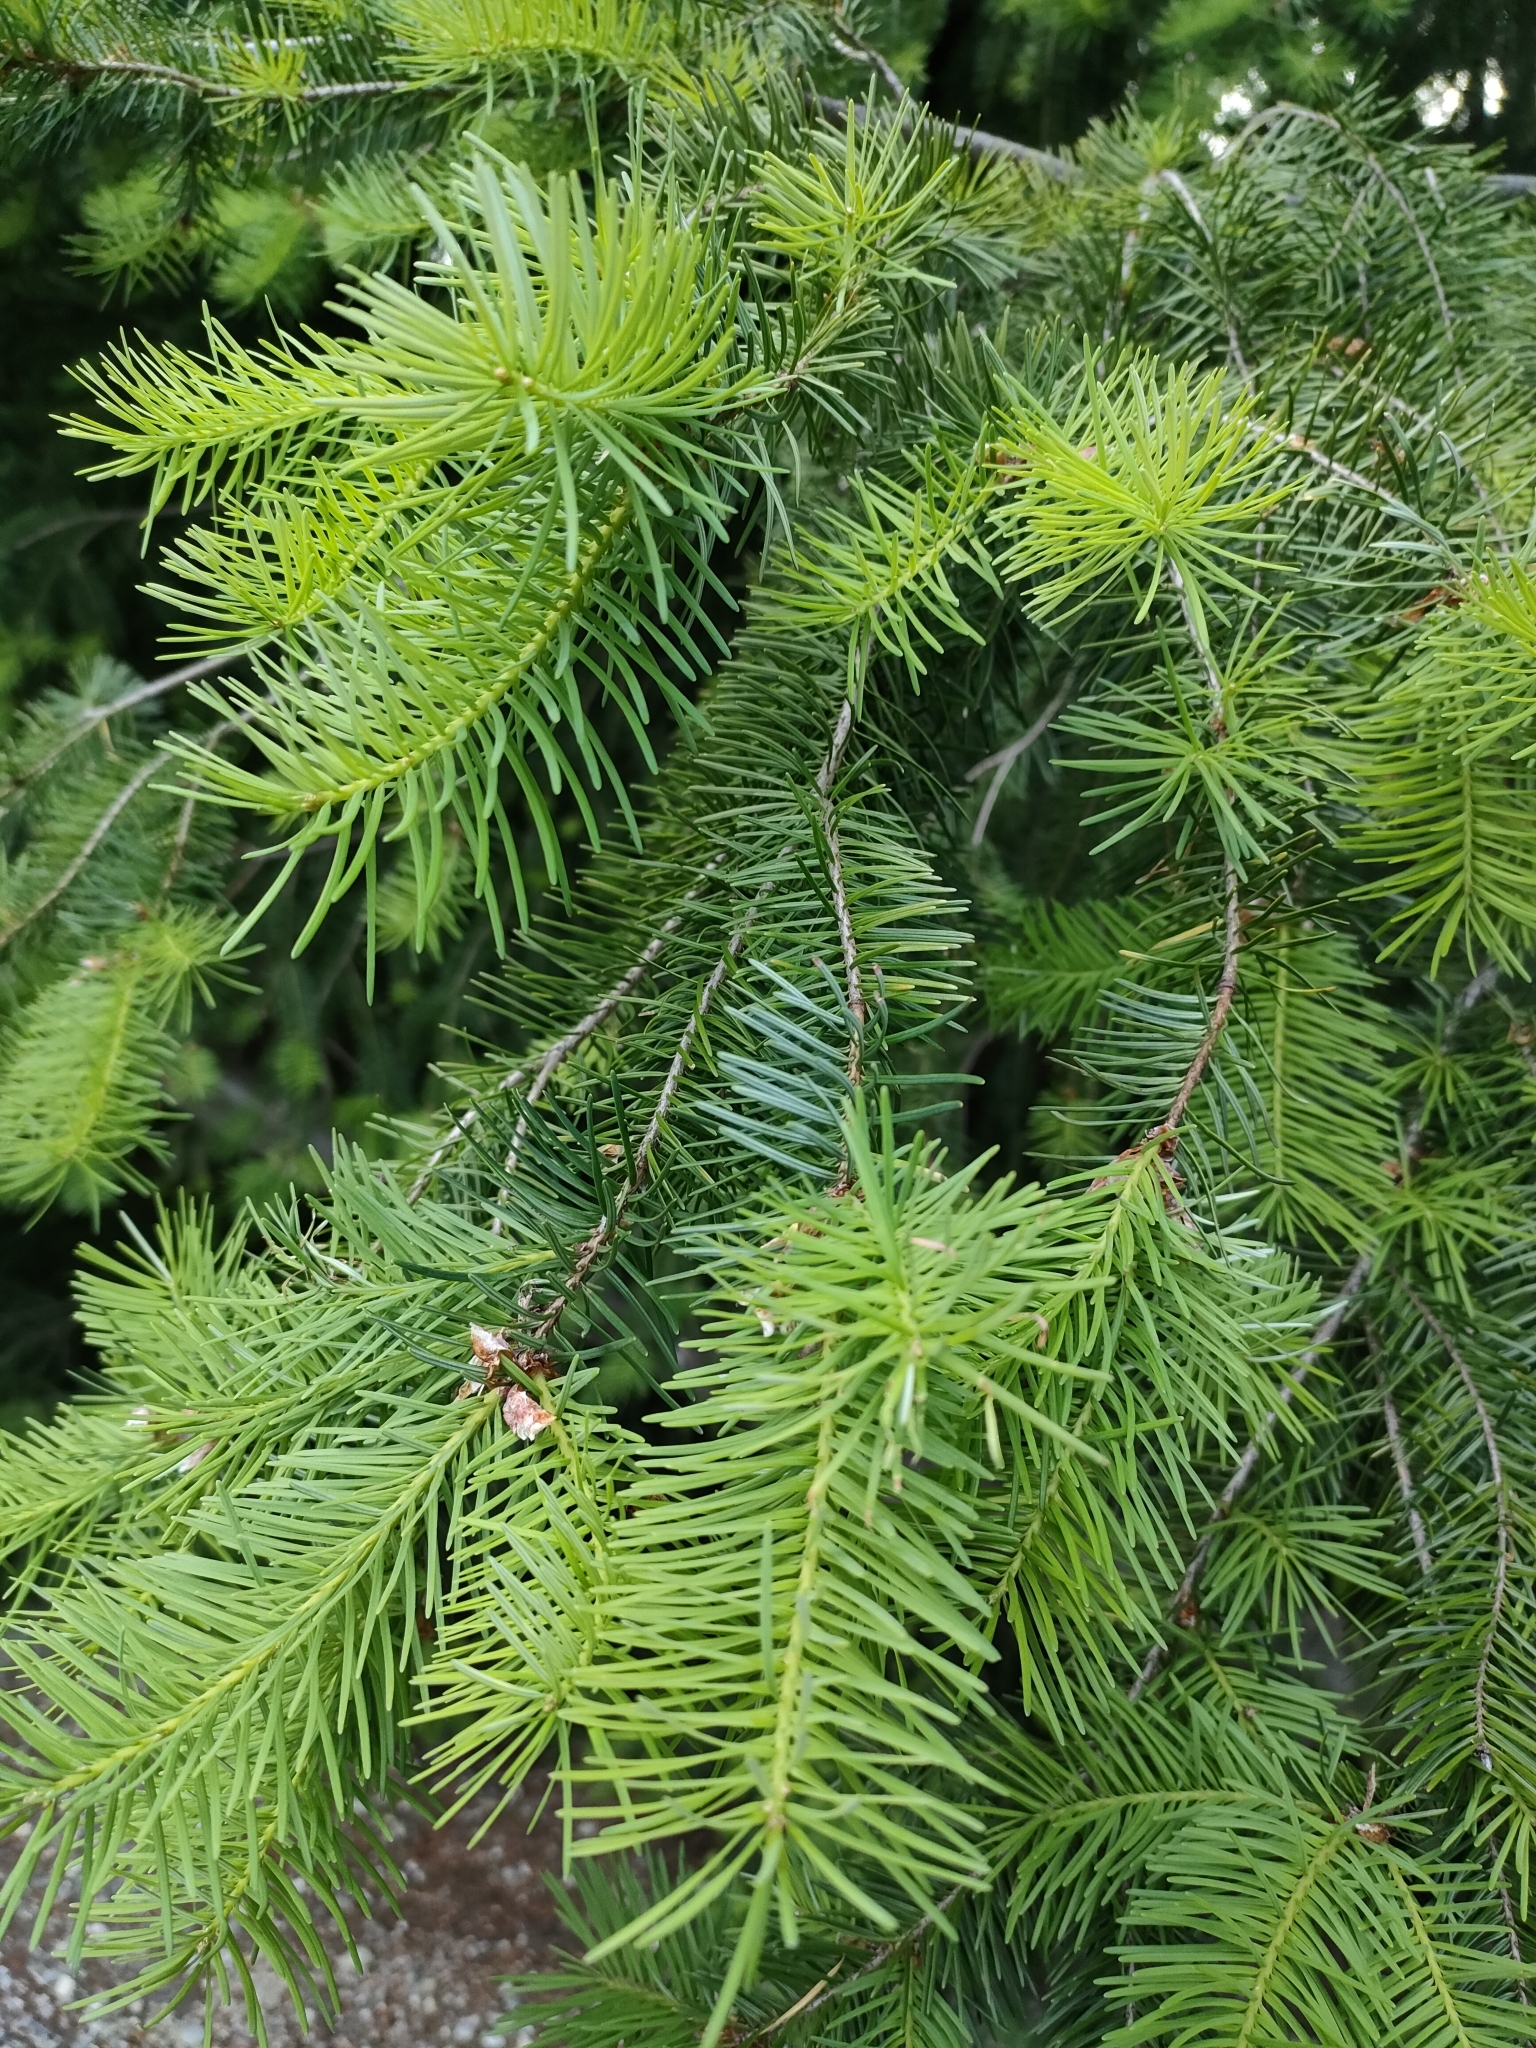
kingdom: Plantae
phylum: Tracheophyta
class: Pinopsida
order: Pinales
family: Pinaceae
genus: Pseudotsuga
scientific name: Pseudotsuga menziesii
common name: Douglas fir
